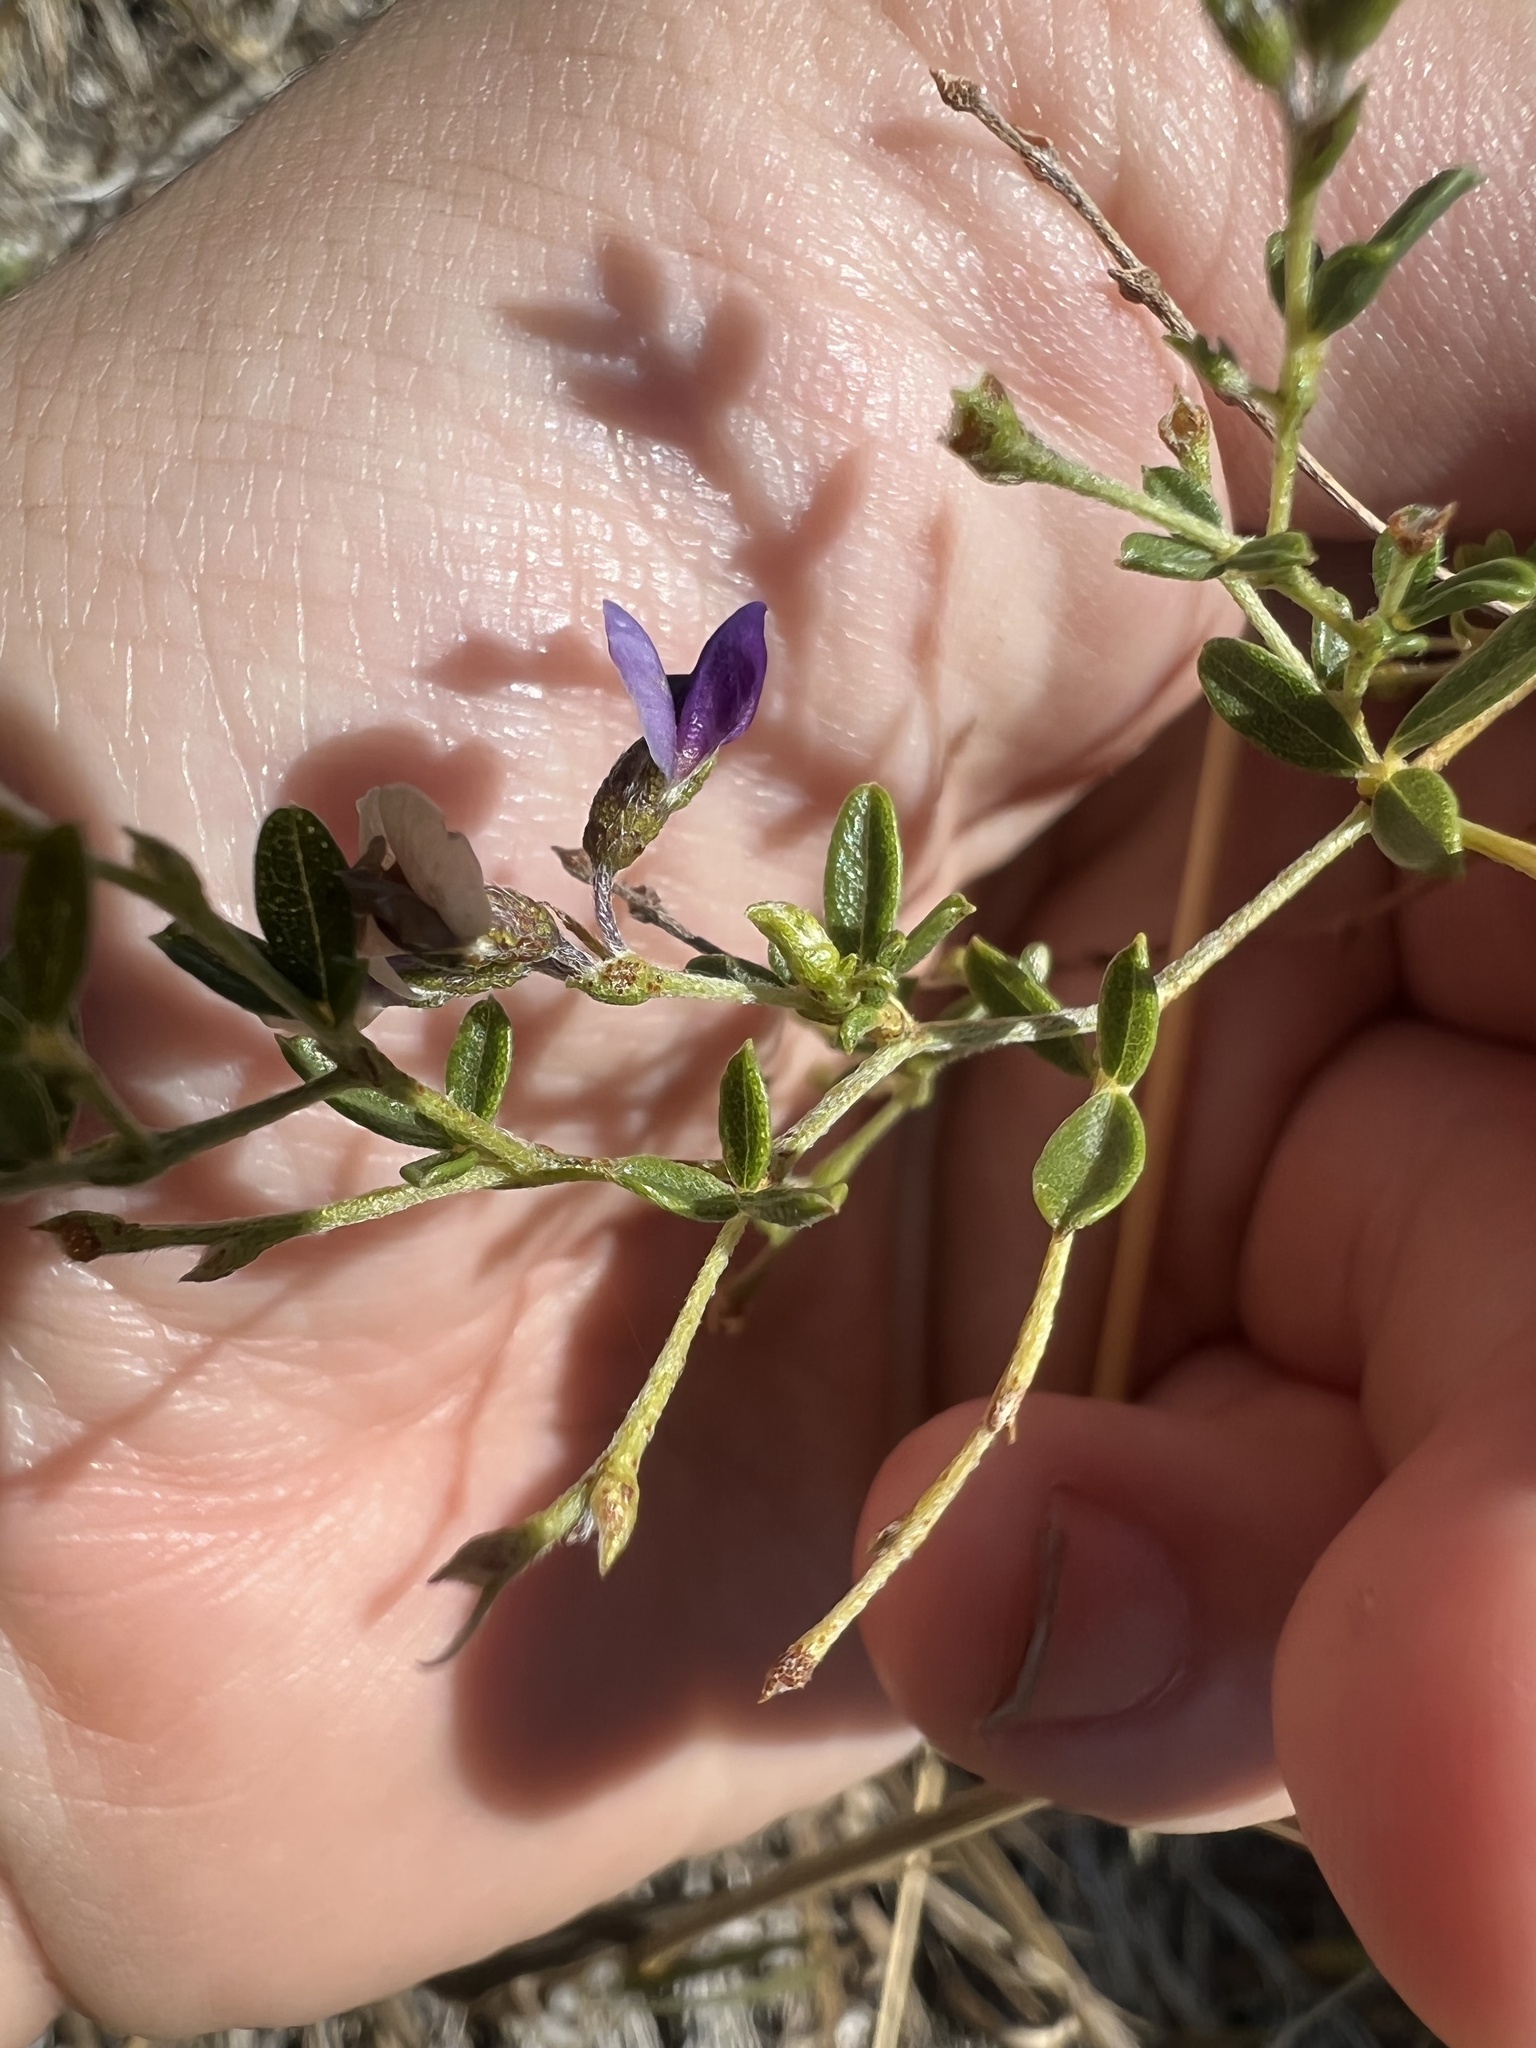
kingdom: Plantae
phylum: Tracheophyta
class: Magnoliopsida
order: Fabales
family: Fabaceae
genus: Pediomelum
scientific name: Pediomelum tenuiflorum
